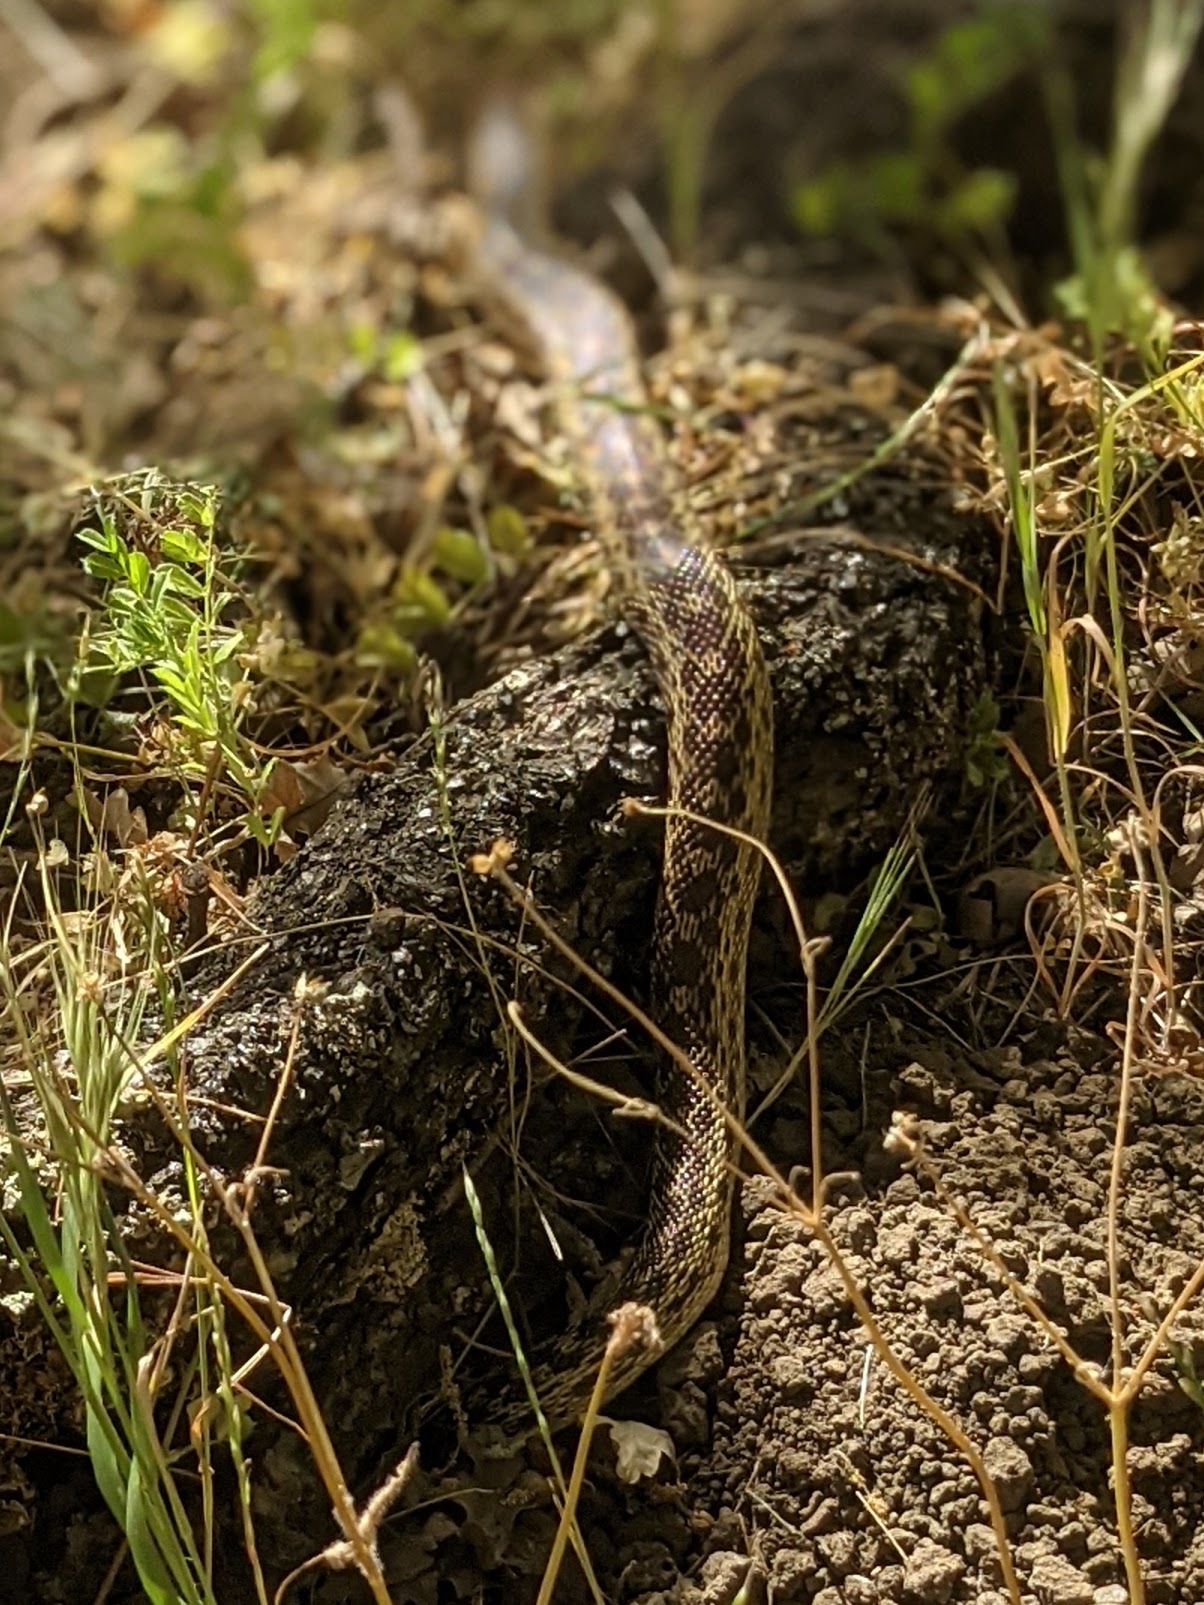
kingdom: Animalia
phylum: Chordata
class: Squamata
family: Colubridae
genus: Pituophis
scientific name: Pituophis catenifer
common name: Gopher snake
